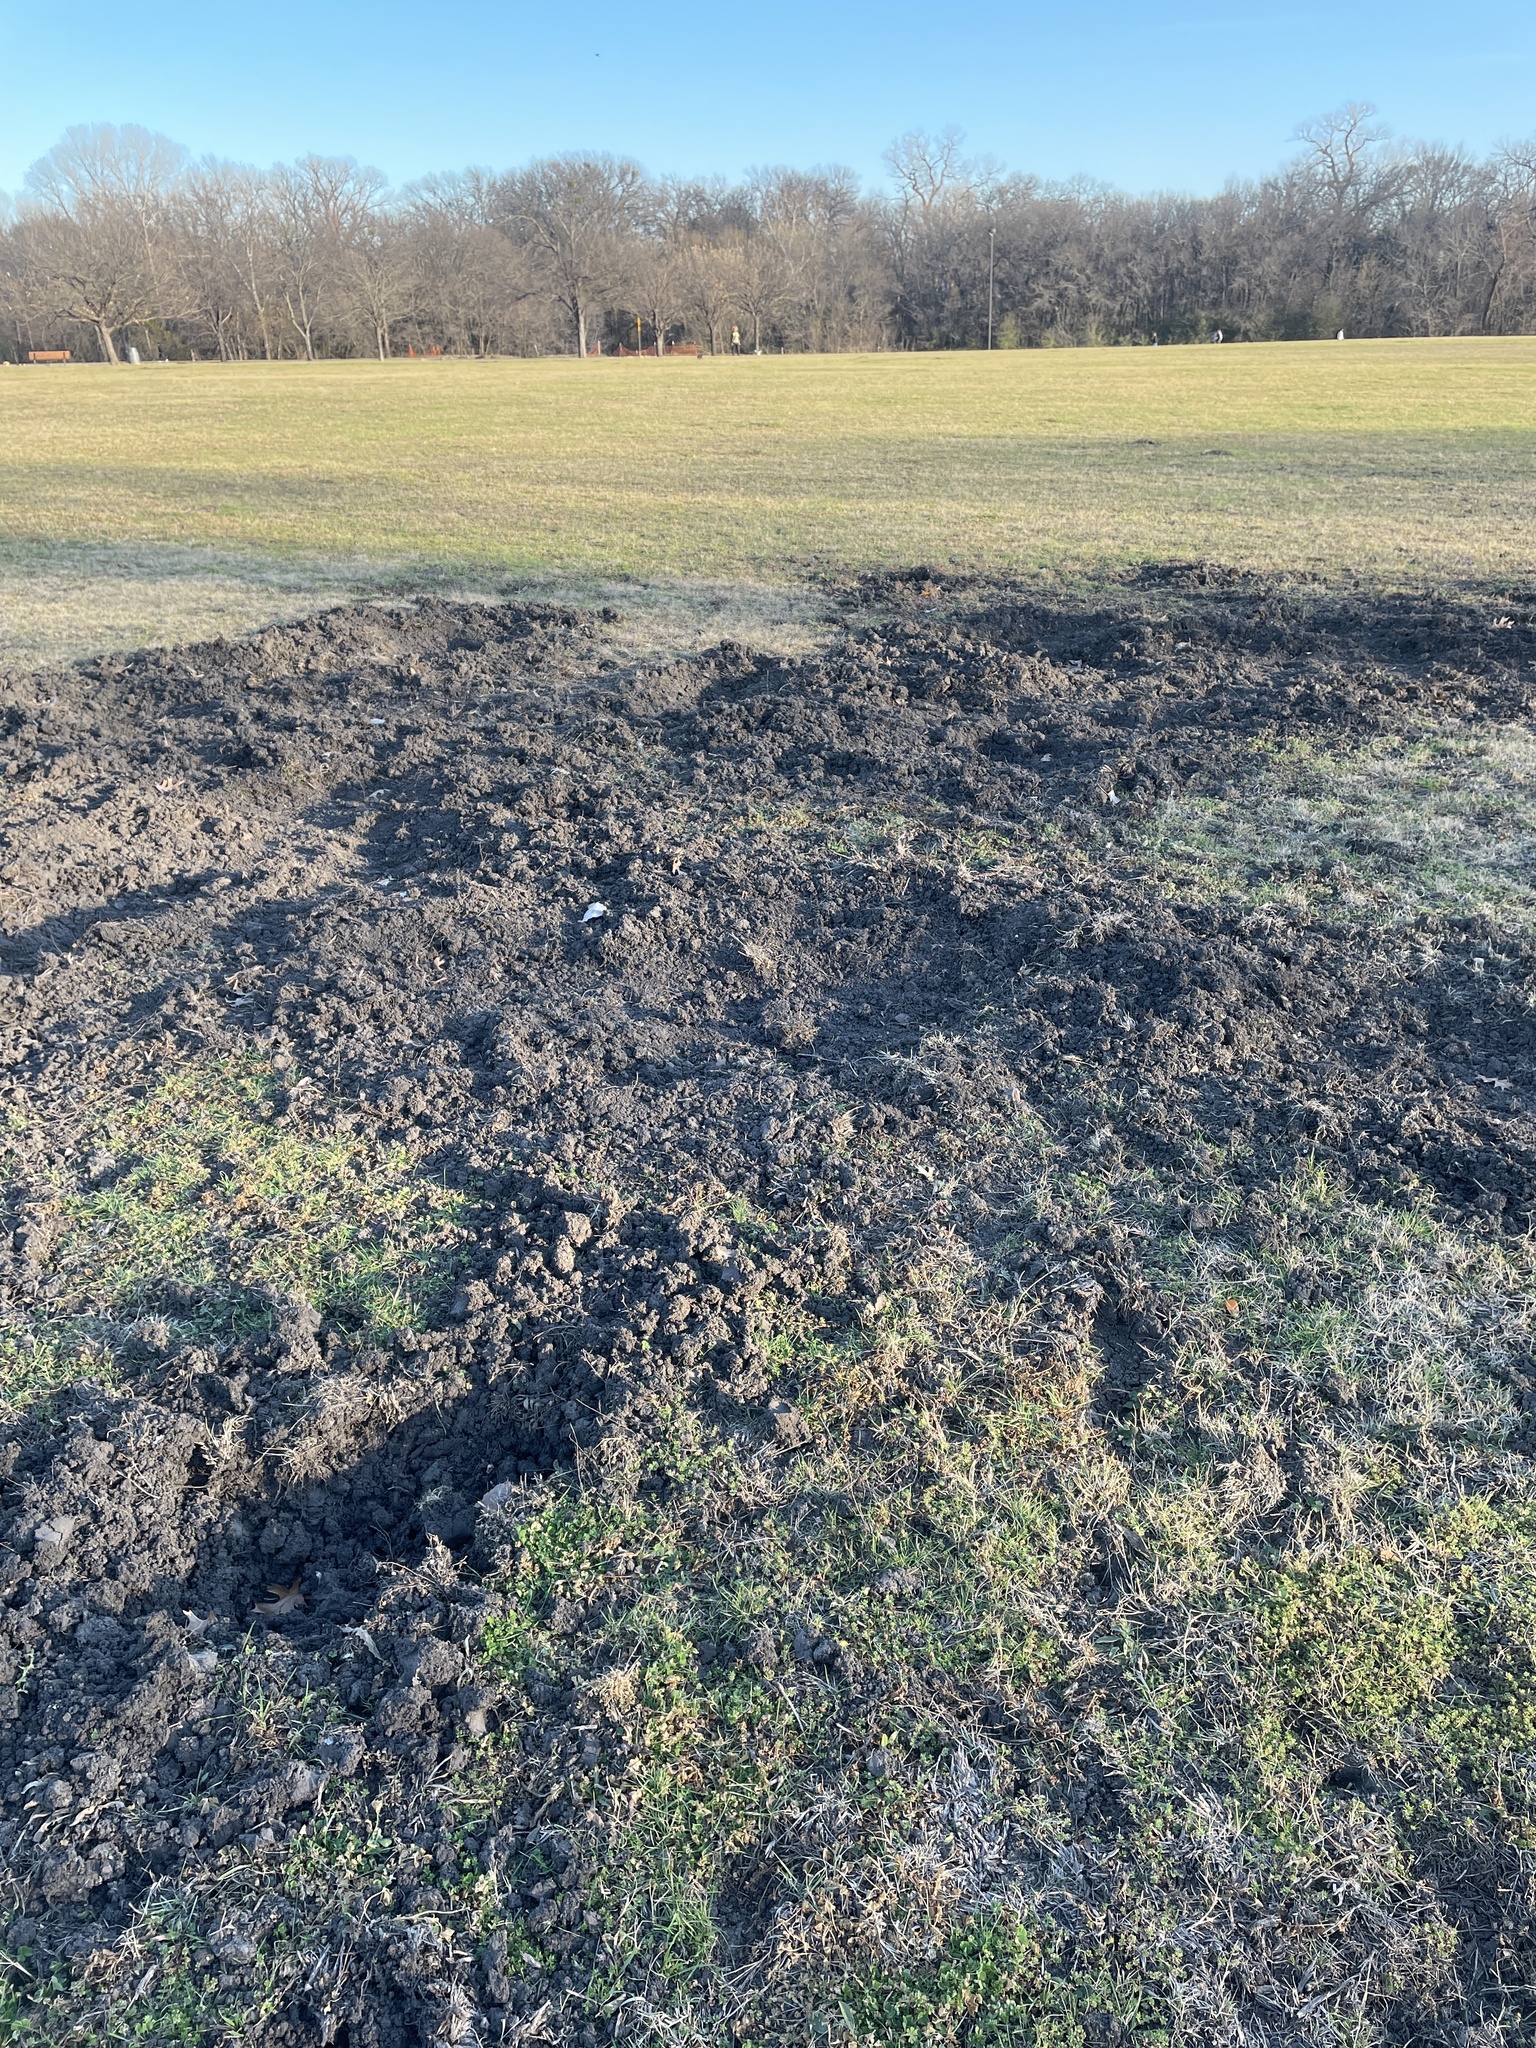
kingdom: Animalia
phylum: Chordata
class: Mammalia
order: Artiodactyla
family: Suidae
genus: Sus
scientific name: Sus scrofa
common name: Wild boar
